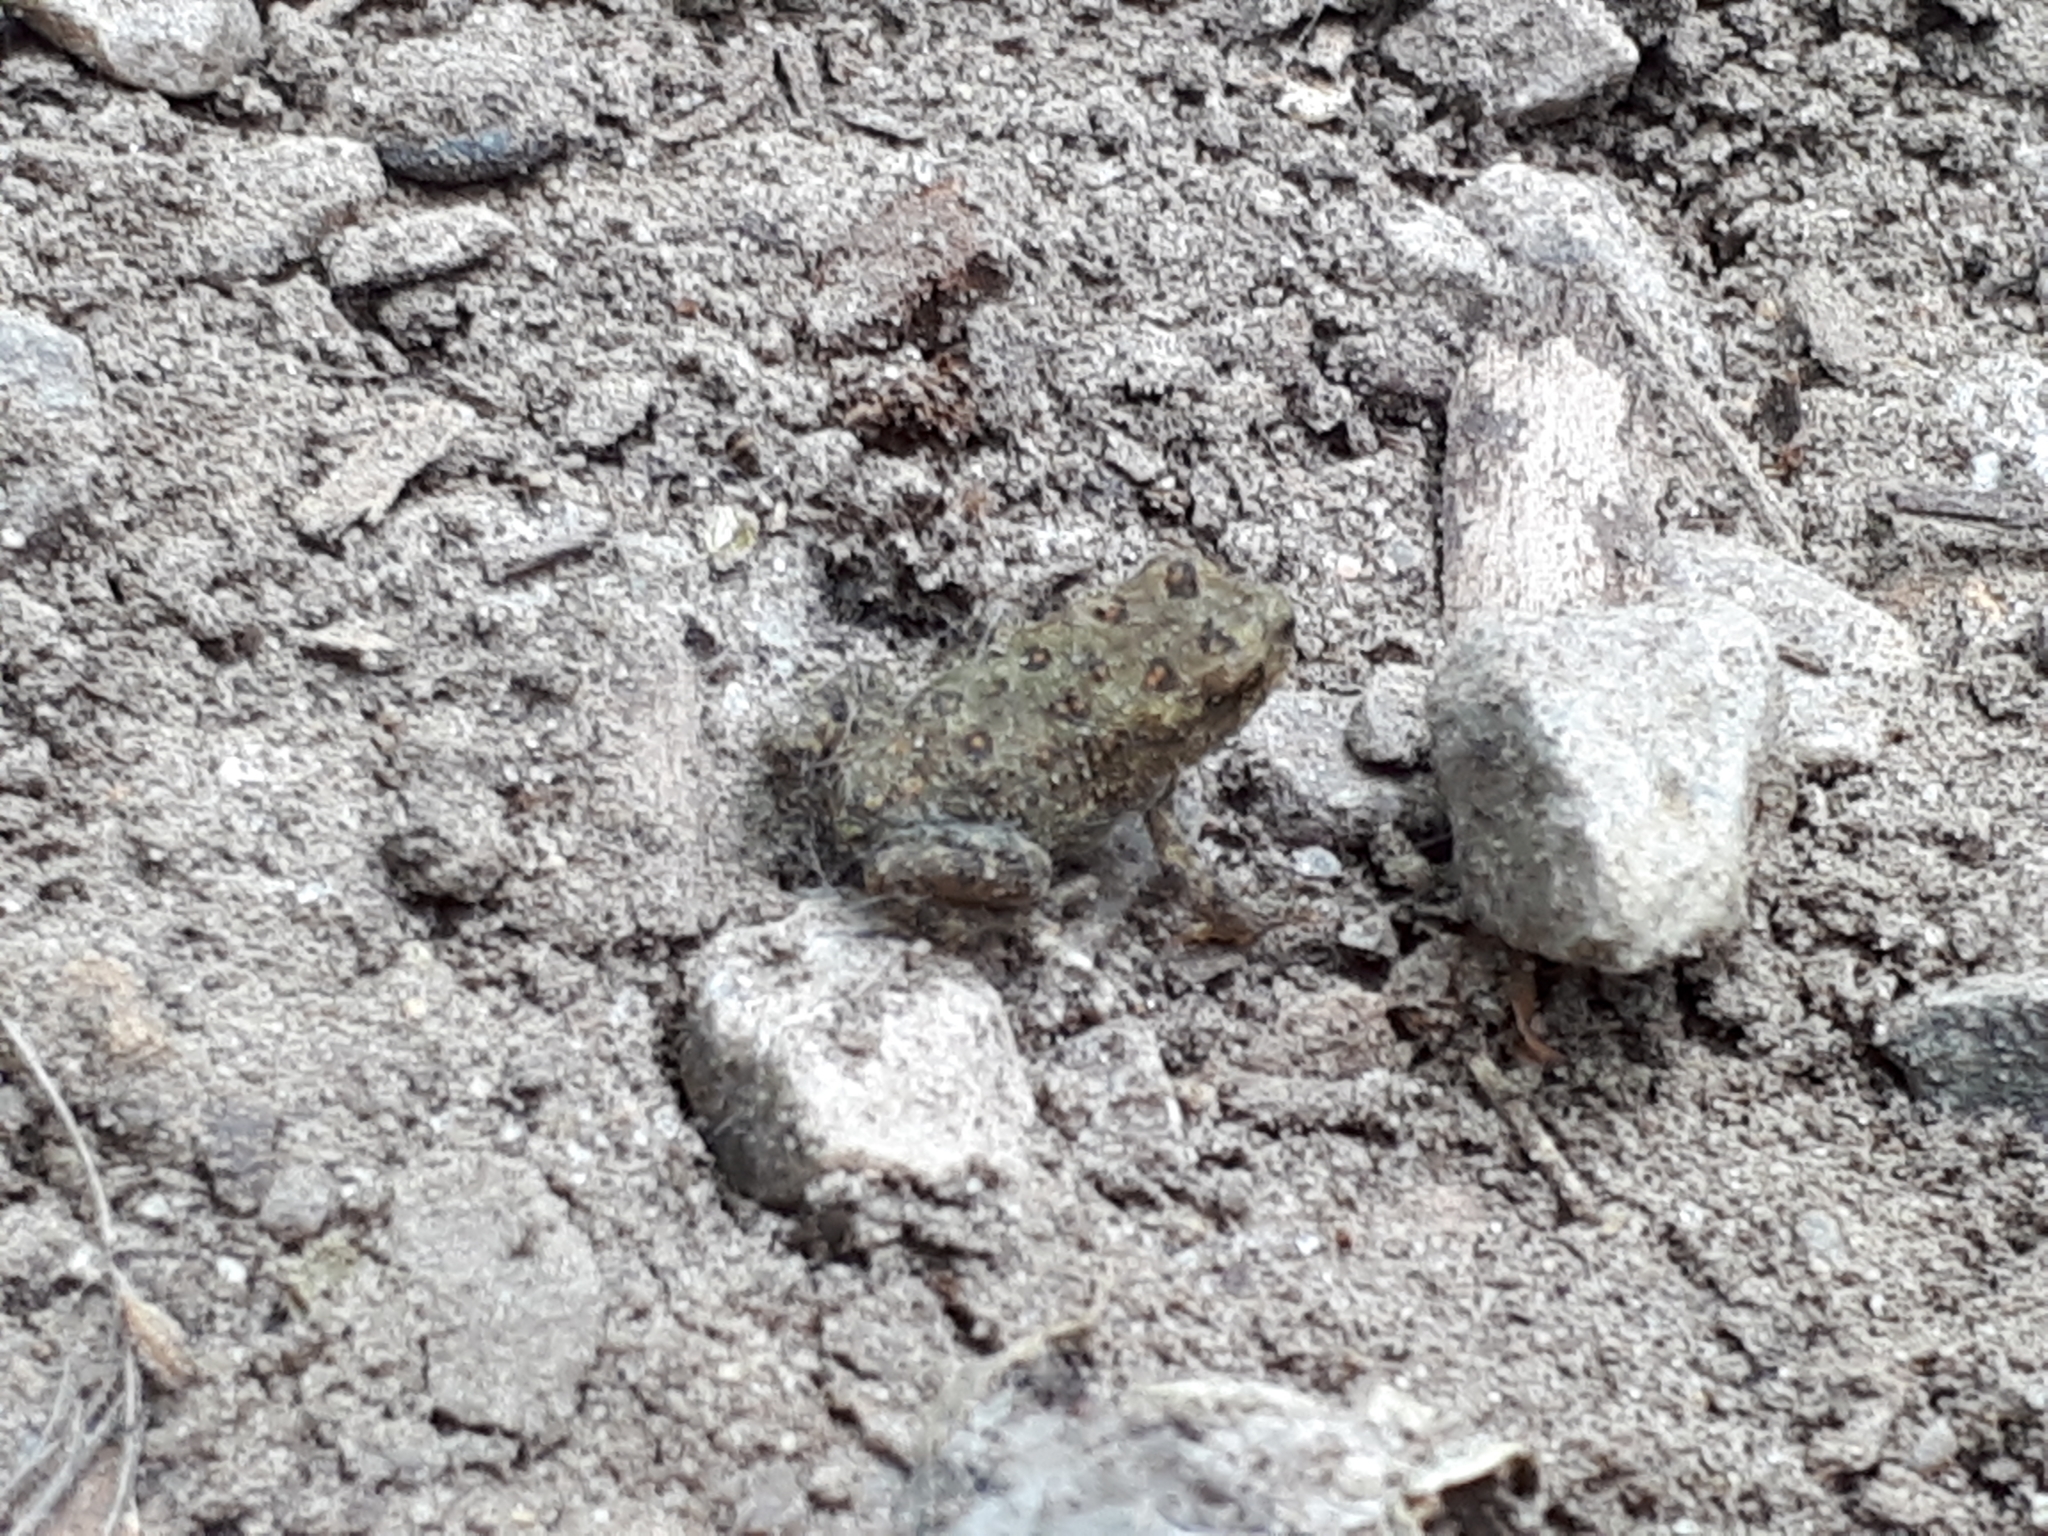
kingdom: Animalia
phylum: Chordata
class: Amphibia
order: Anura
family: Bufonidae
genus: Anaxyrus
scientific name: Anaxyrus americanus
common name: American toad
